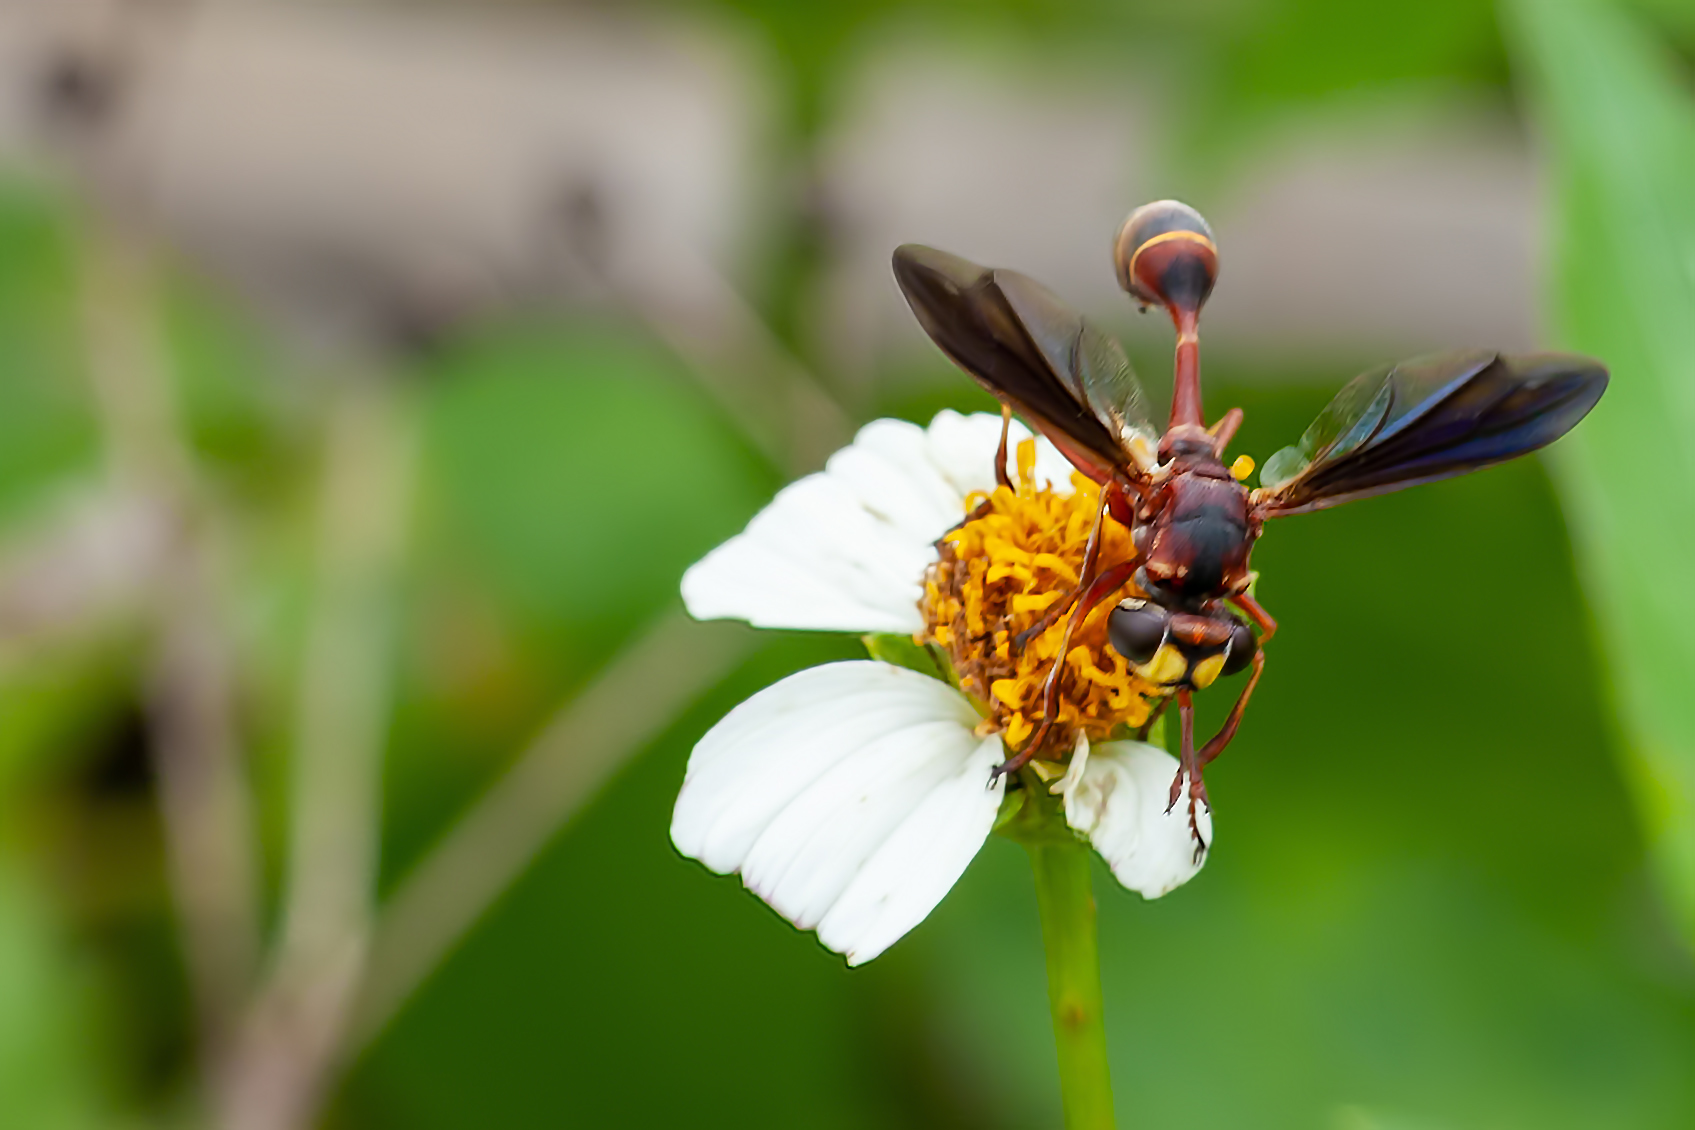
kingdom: Animalia
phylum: Arthropoda
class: Insecta
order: Diptera
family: Conopidae
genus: Physocephala
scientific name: Physocephala sagittaria
